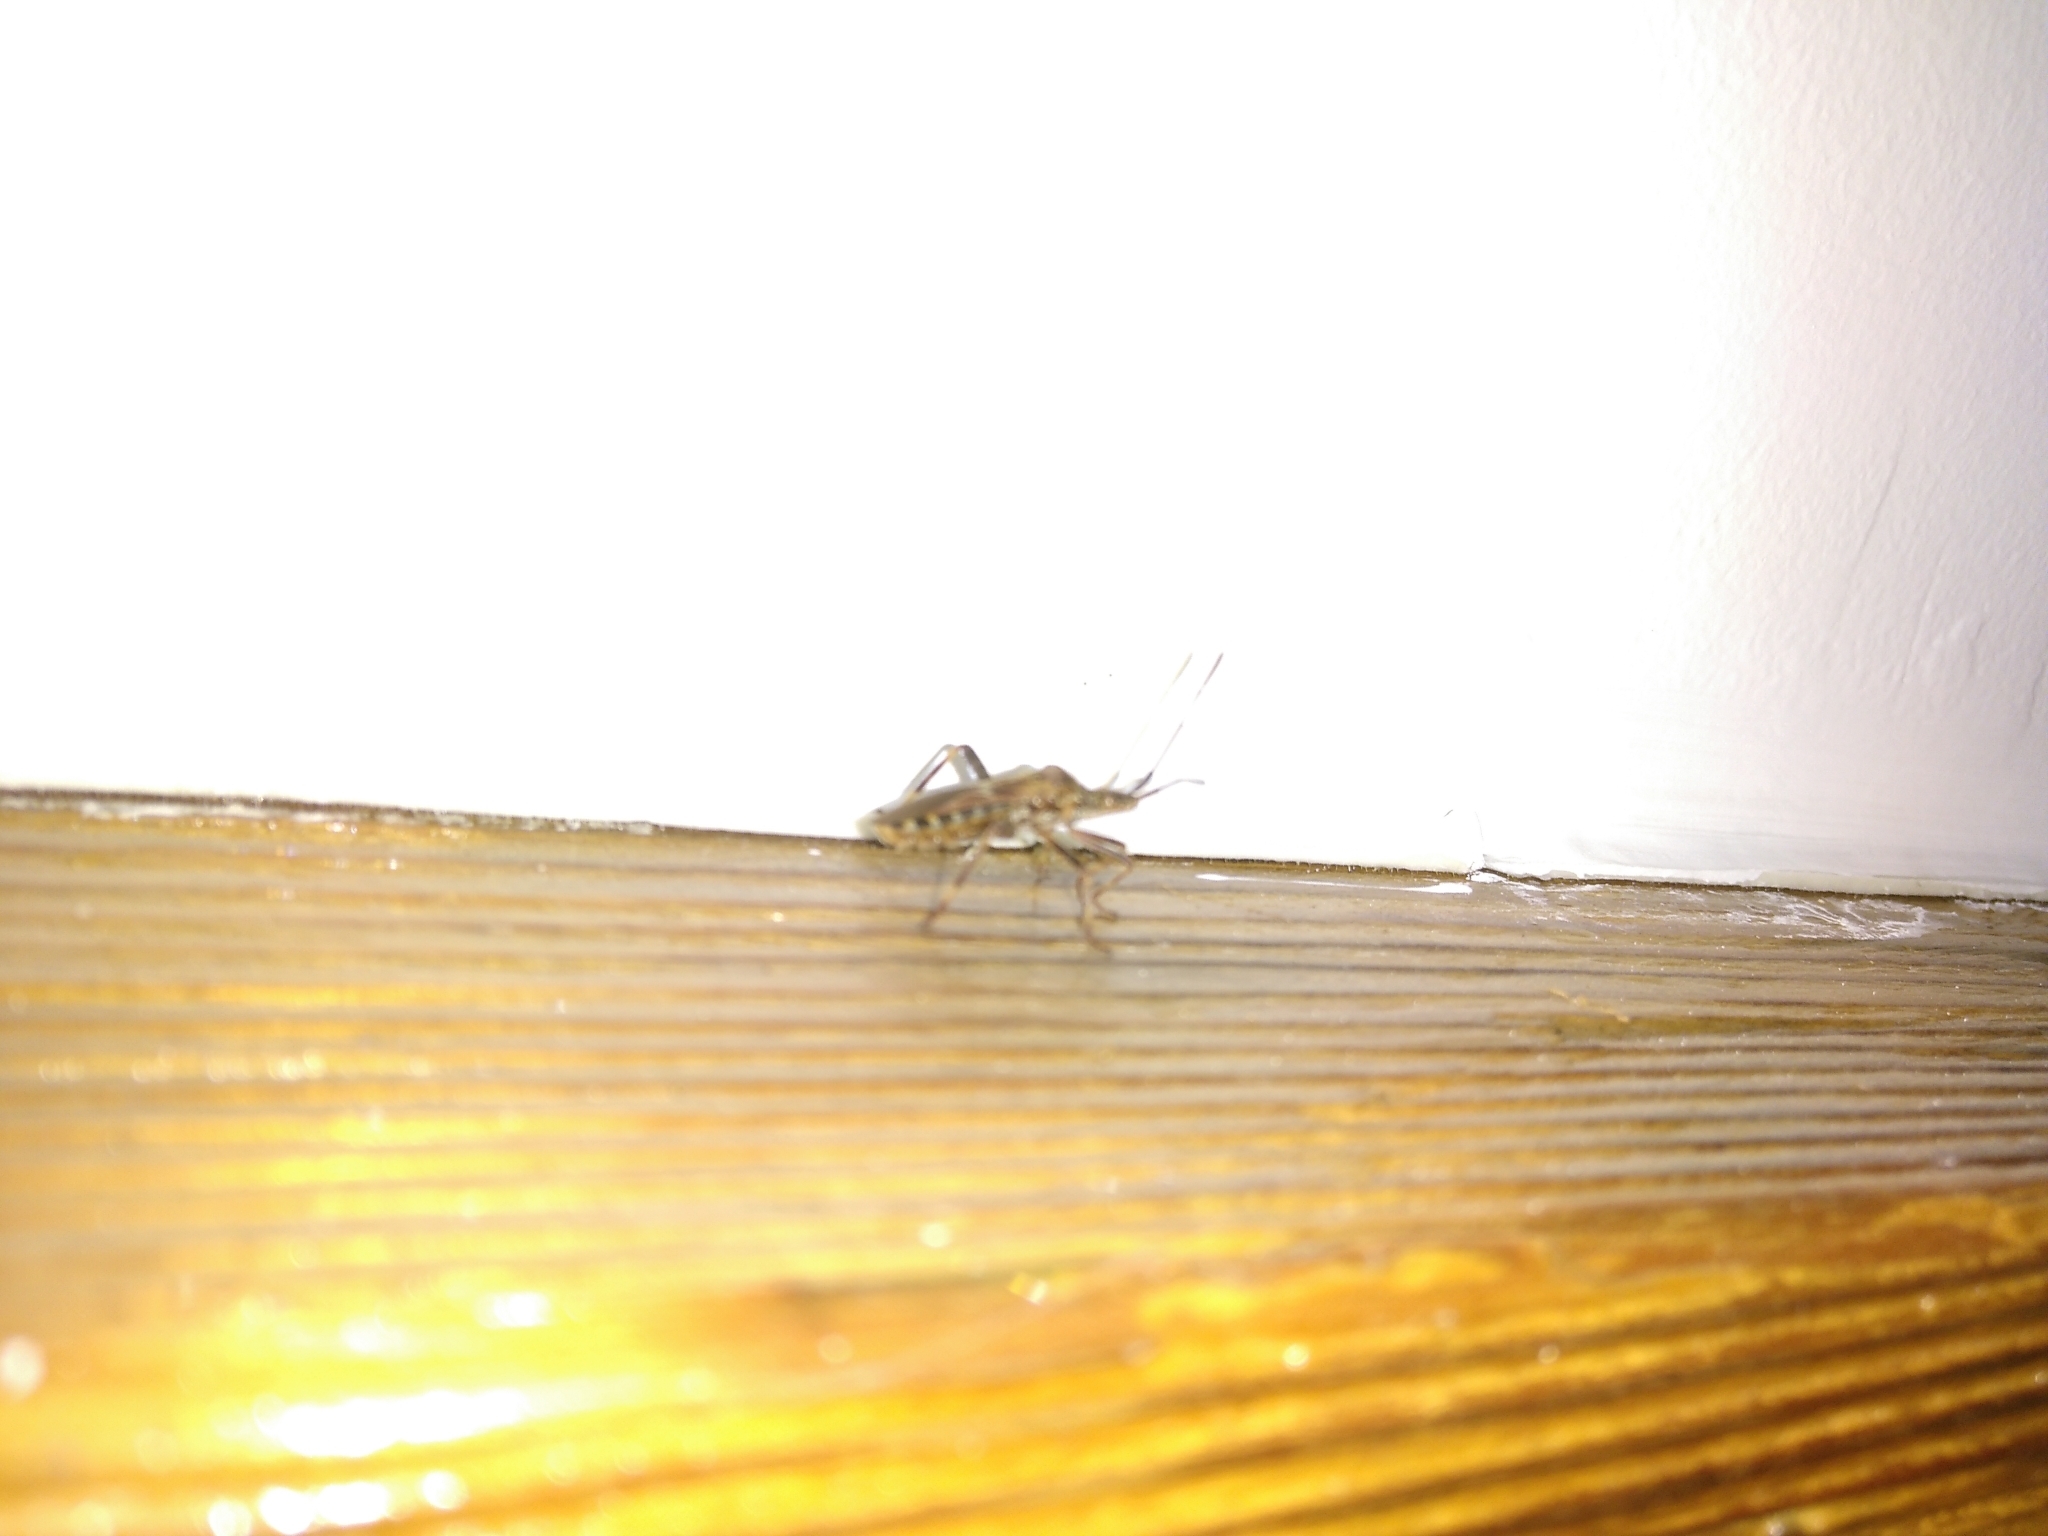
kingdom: Animalia
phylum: Arthropoda
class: Insecta
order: Hemiptera
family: Coreidae
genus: Leptoglossus
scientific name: Leptoglossus occidentalis
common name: Western conifer-seed bug
